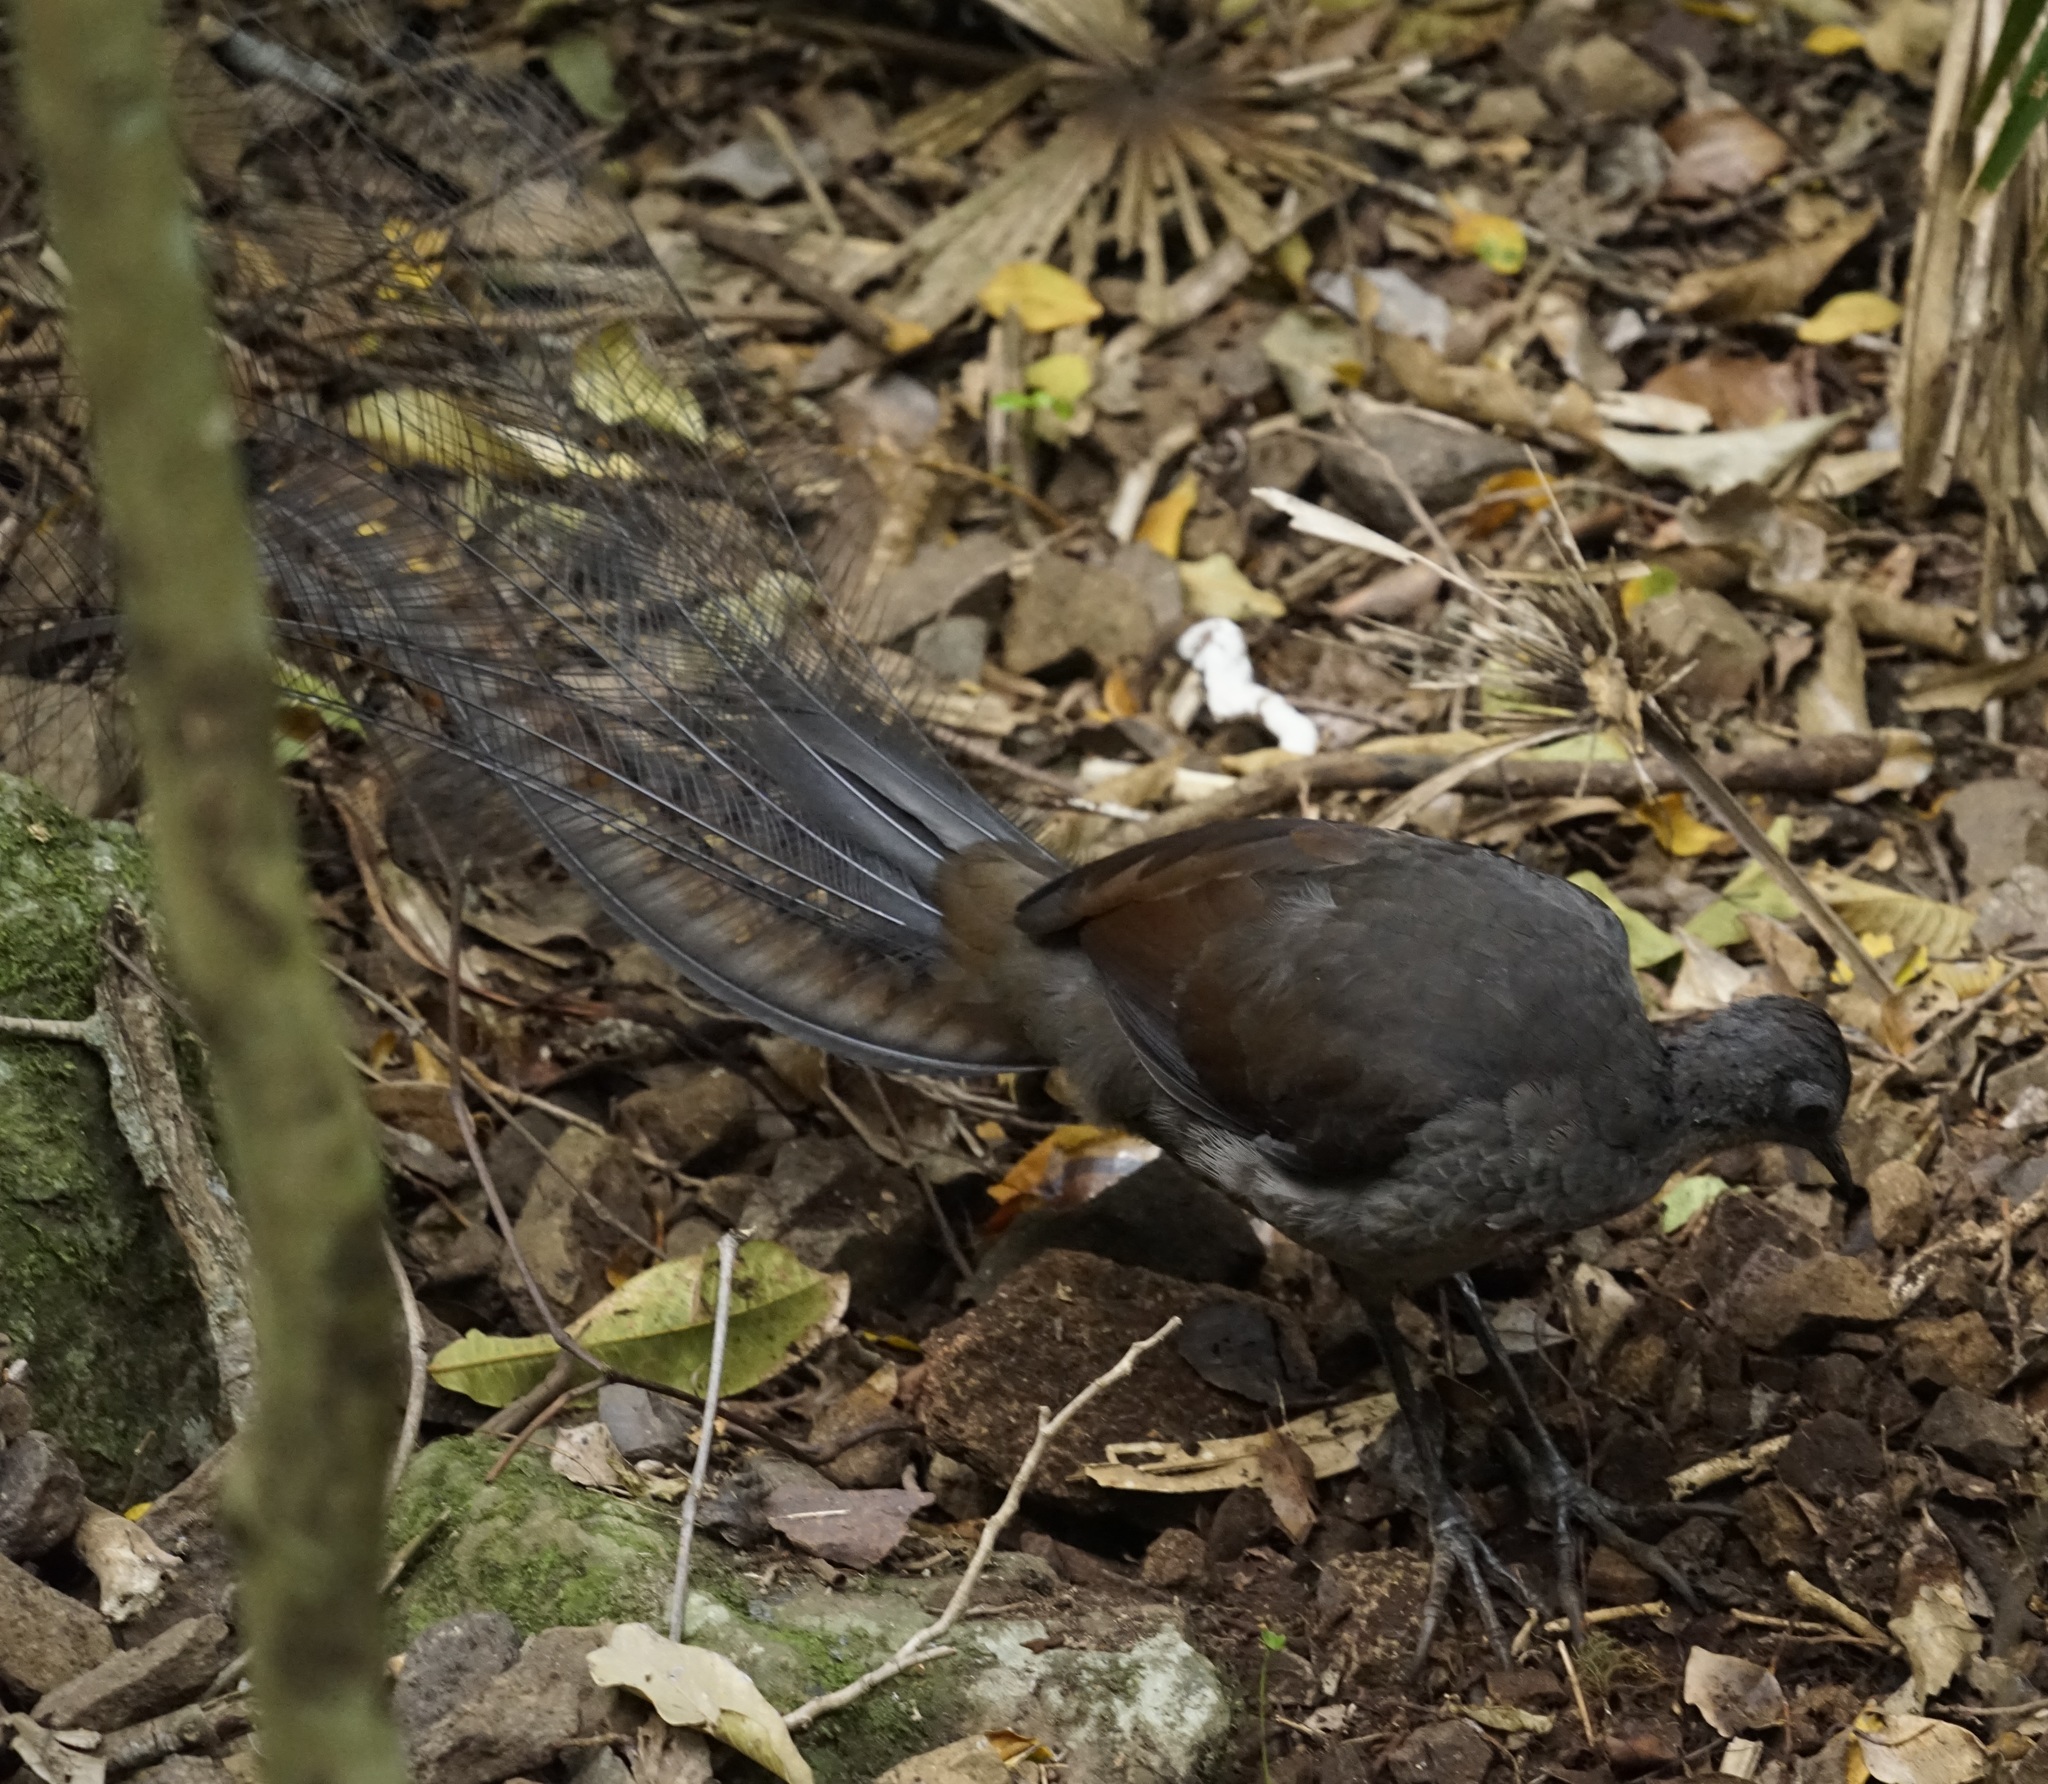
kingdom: Animalia
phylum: Chordata
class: Aves
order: Passeriformes
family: Menuridae
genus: Menura
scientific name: Menura novaehollandiae
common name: Superb lyrebird
